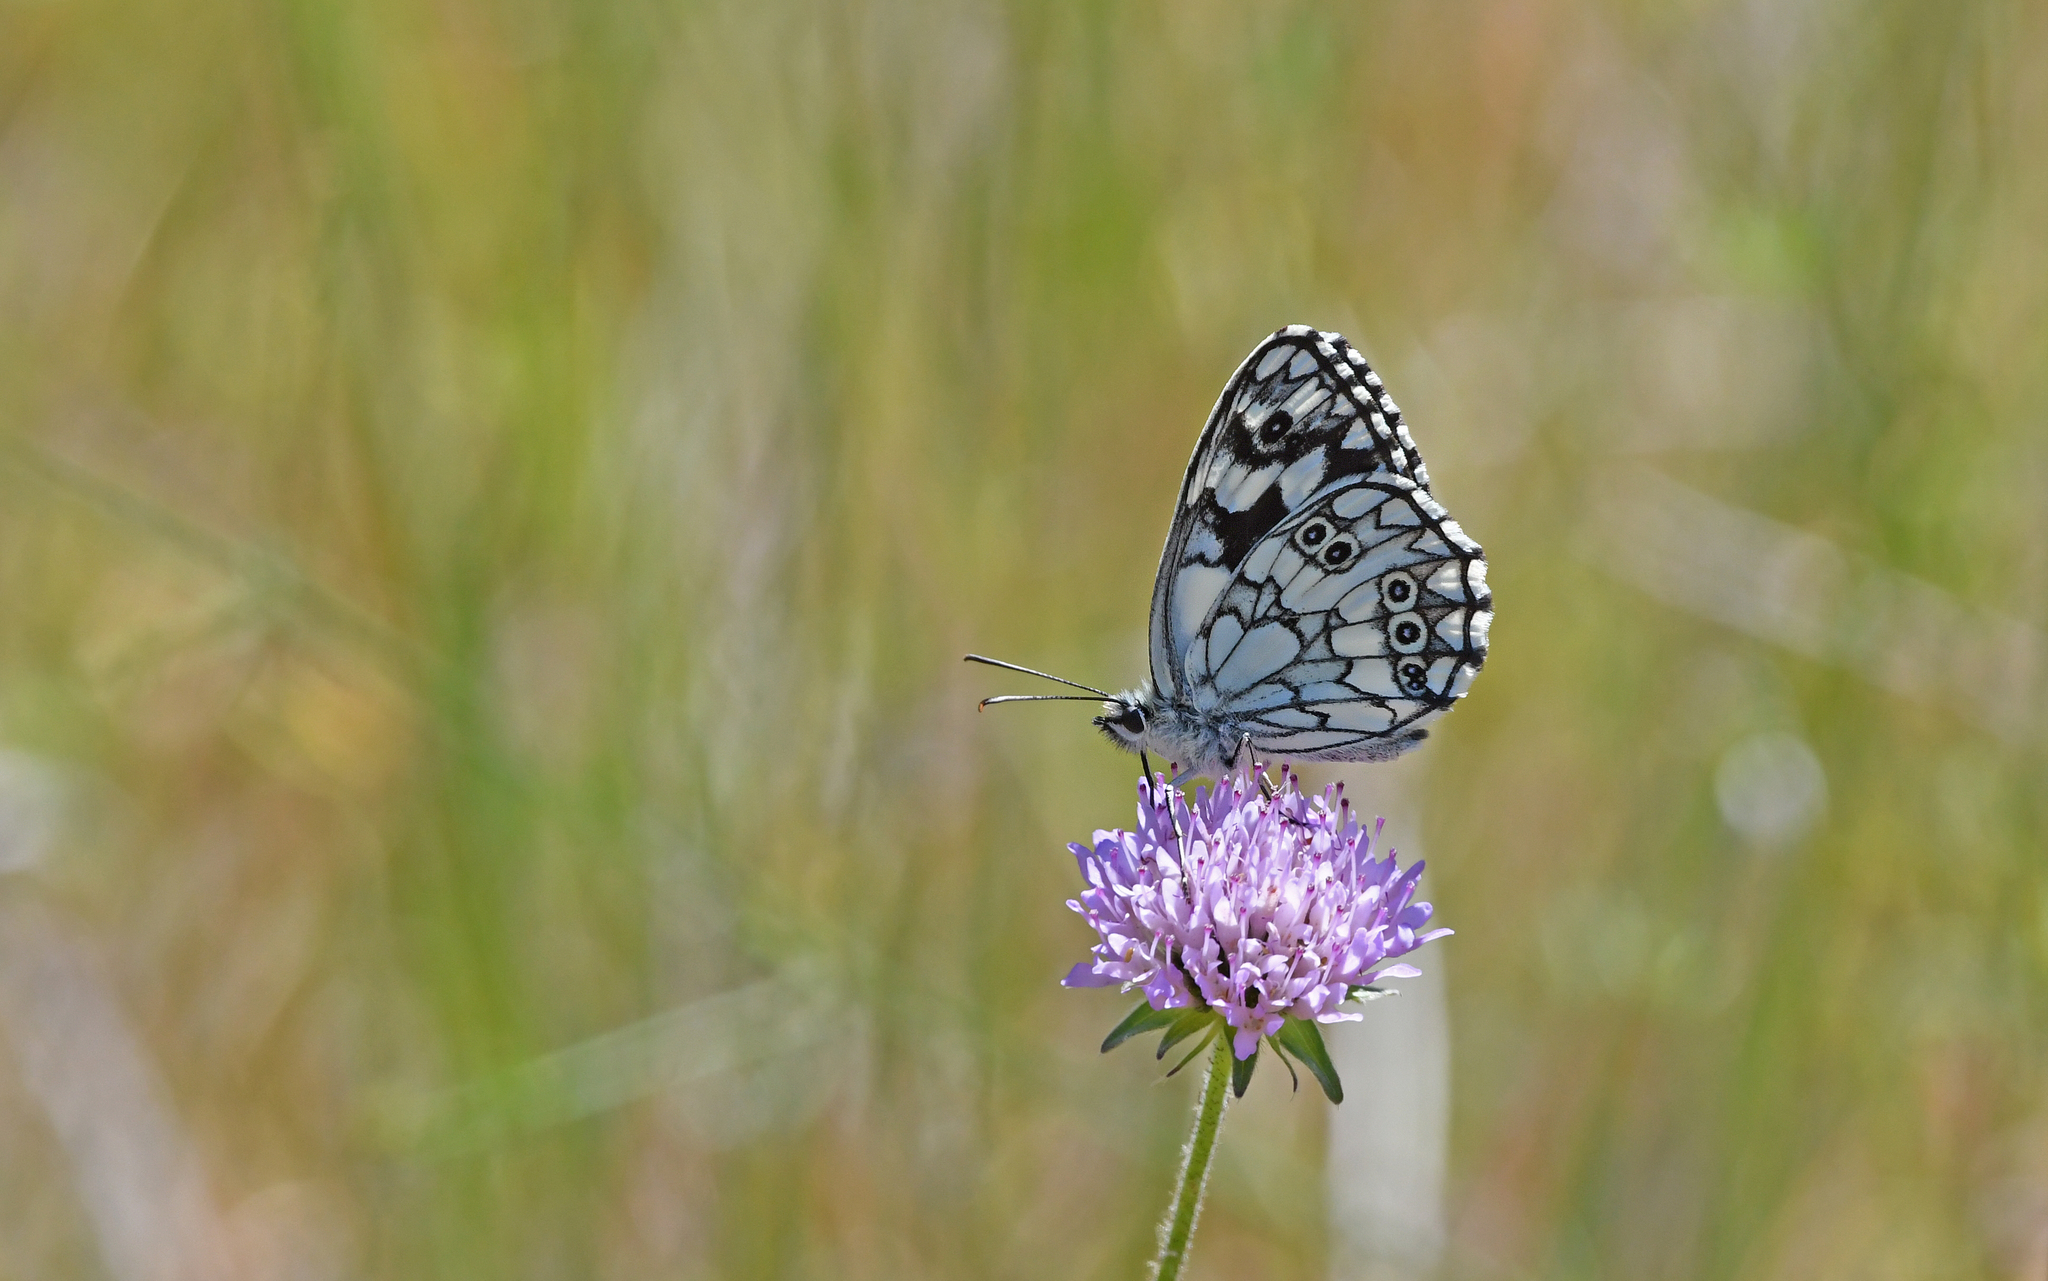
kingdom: Animalia
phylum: Arthropoda
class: Insecta
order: Lepidoptera
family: Nymphalidae
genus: Melanargia
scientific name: Melanargia galathea
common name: Marbled white
